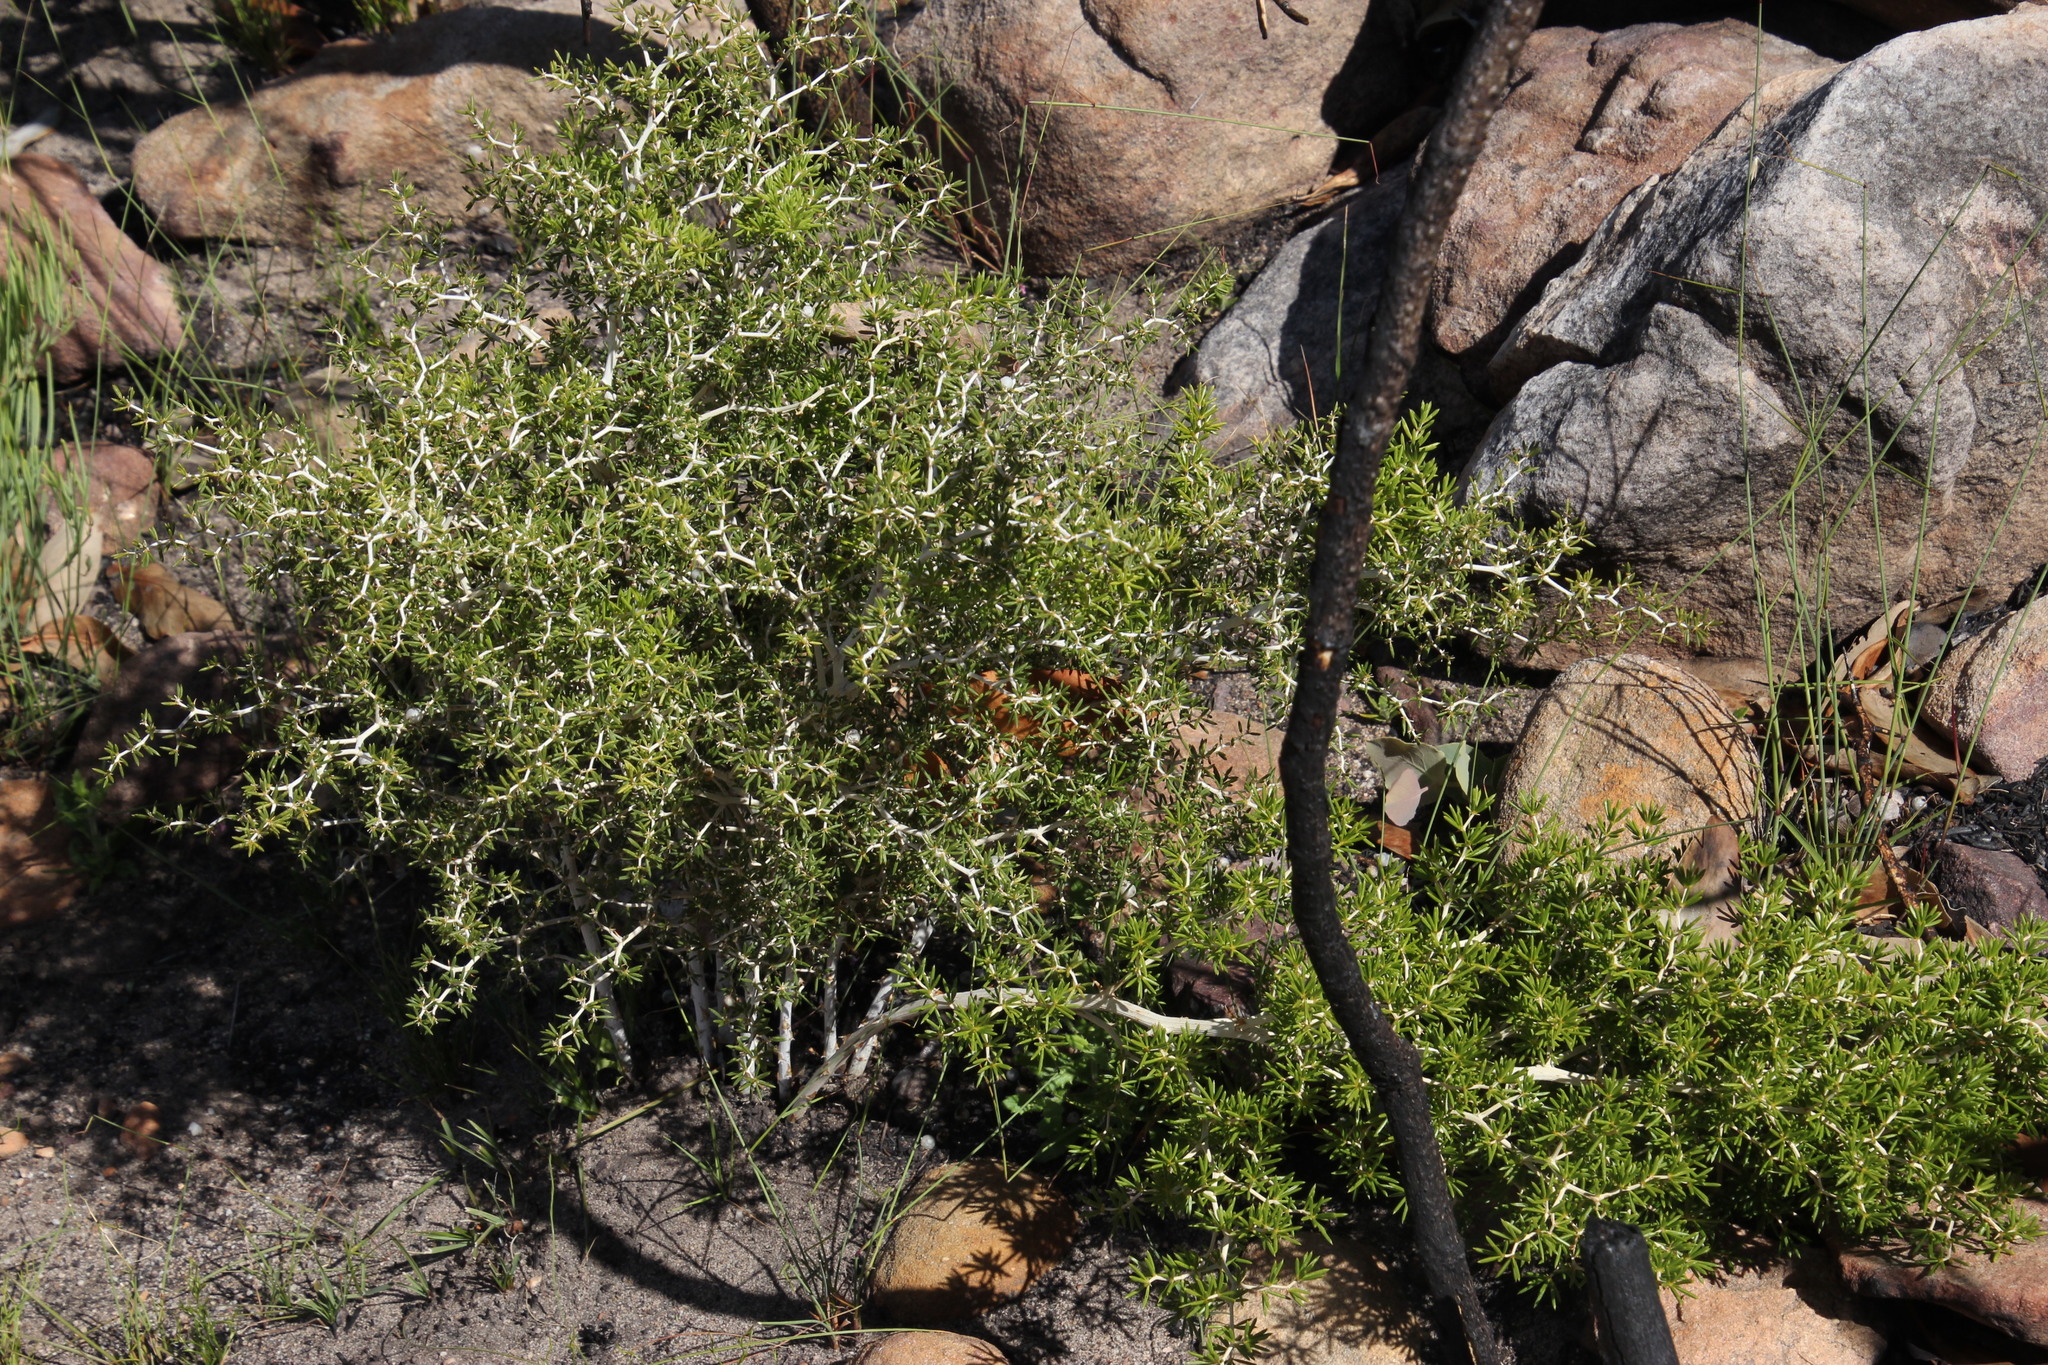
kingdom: Plantae
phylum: Tracheophyta
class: Liliopsida
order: Asparagales
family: Asparagaceae
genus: Asparagus
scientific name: Asparagus lignosus
